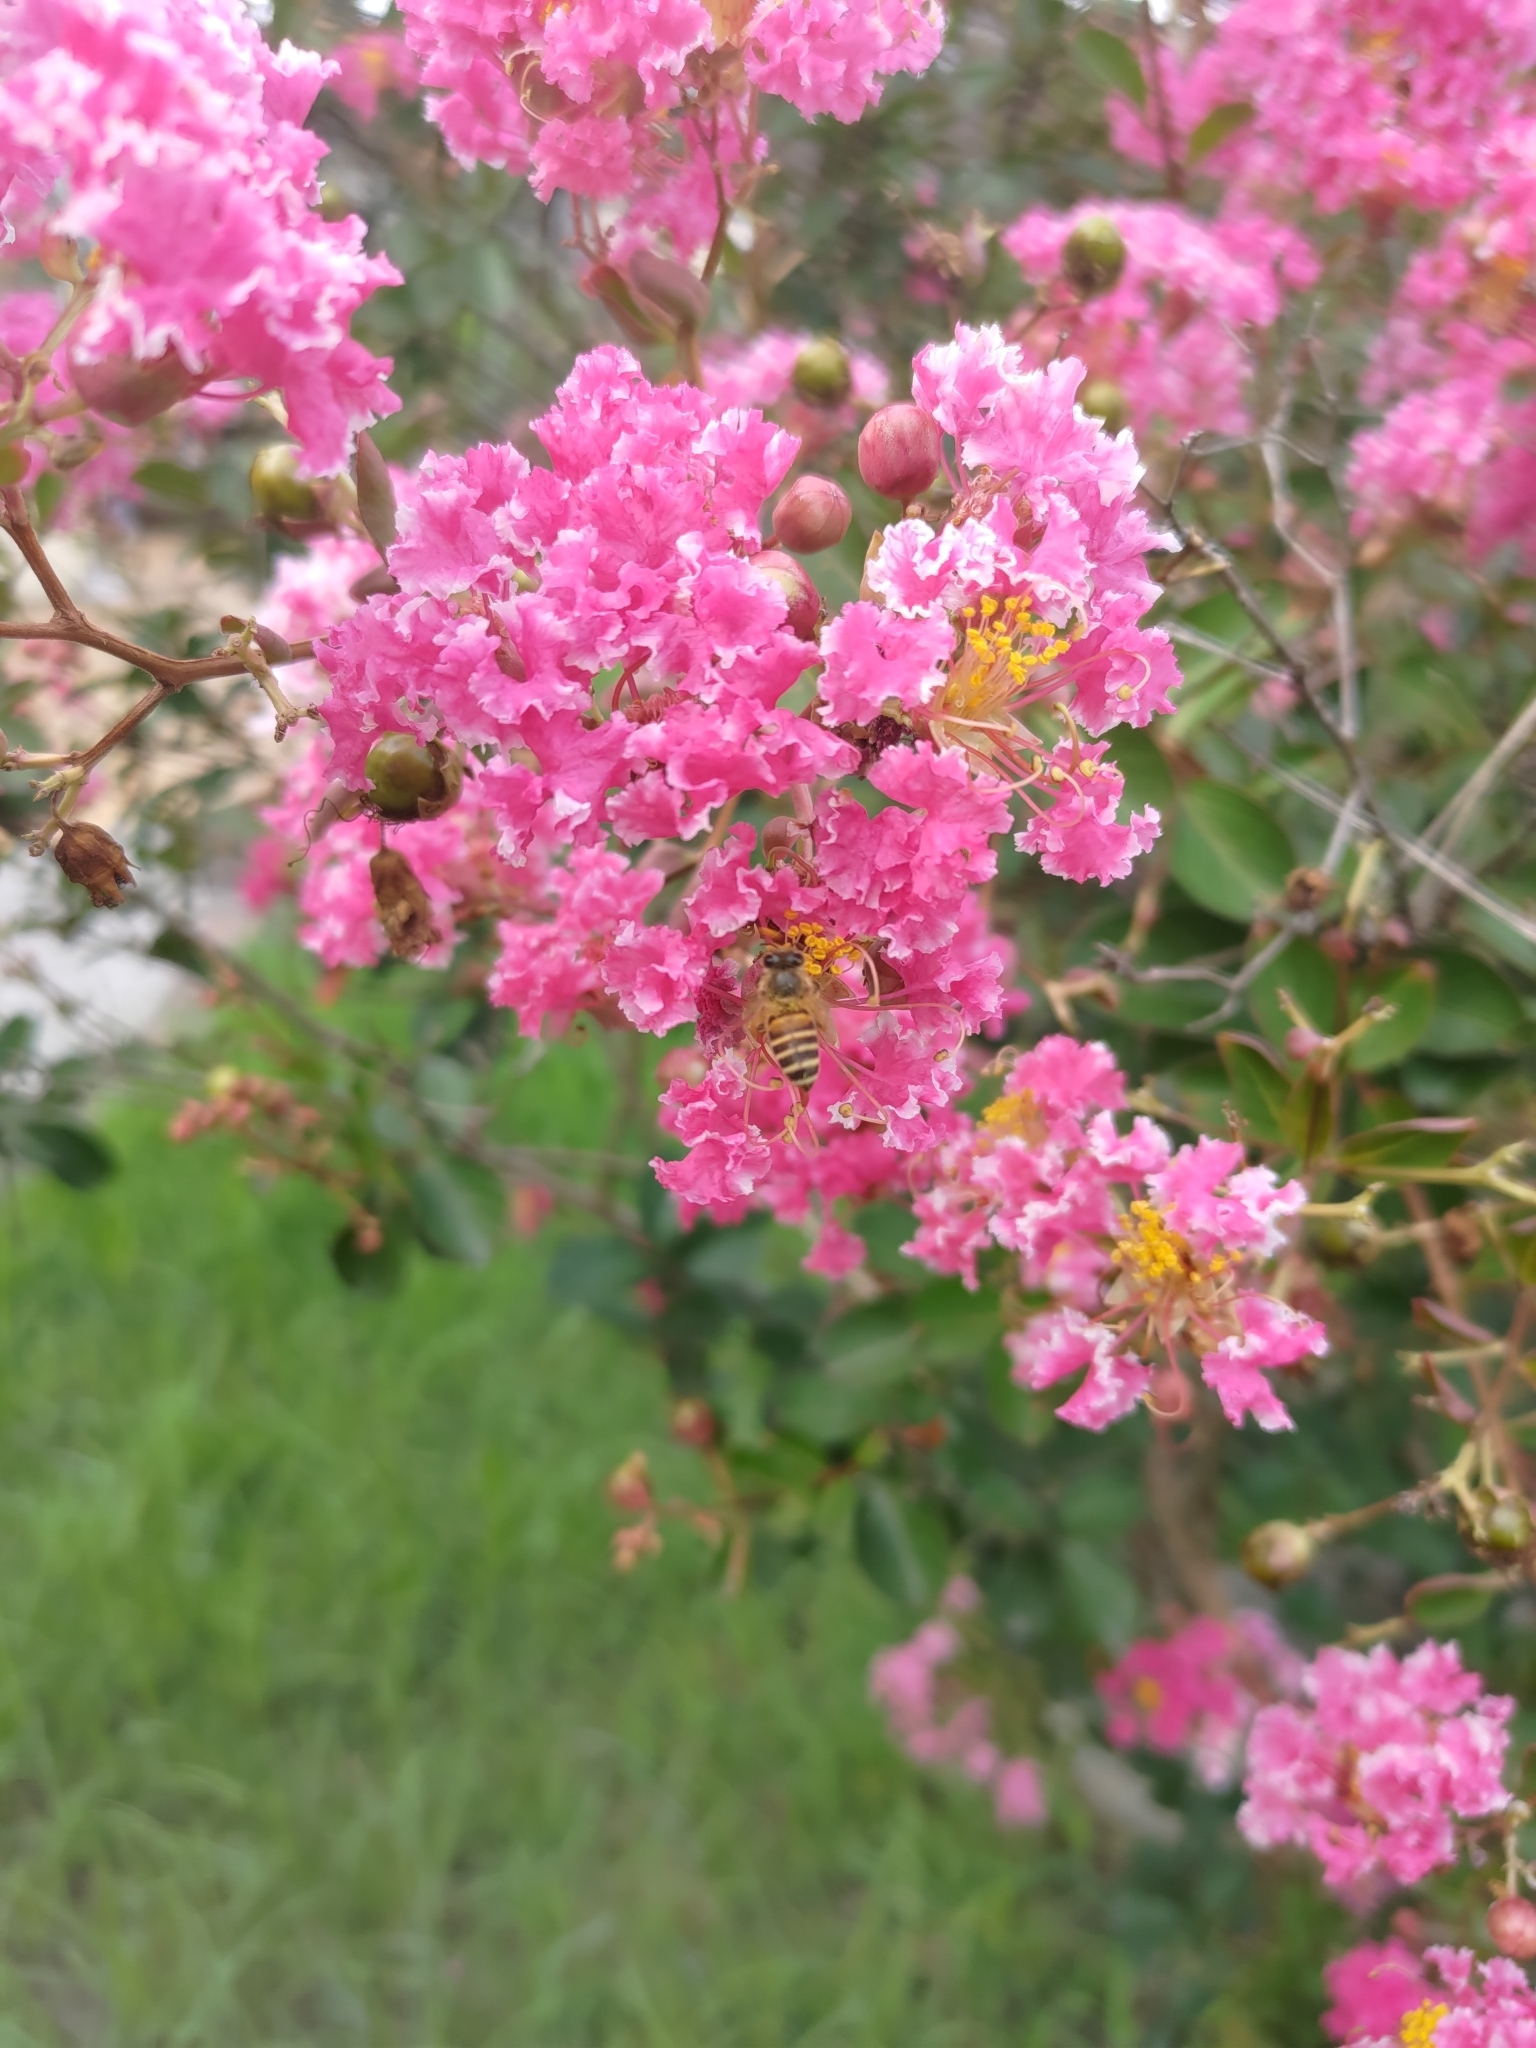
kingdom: Animalia
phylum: Arthropoda
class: Insecta
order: Hymenoptera
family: Apidae
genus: Apis
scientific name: Apis cerana
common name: Honey bee
